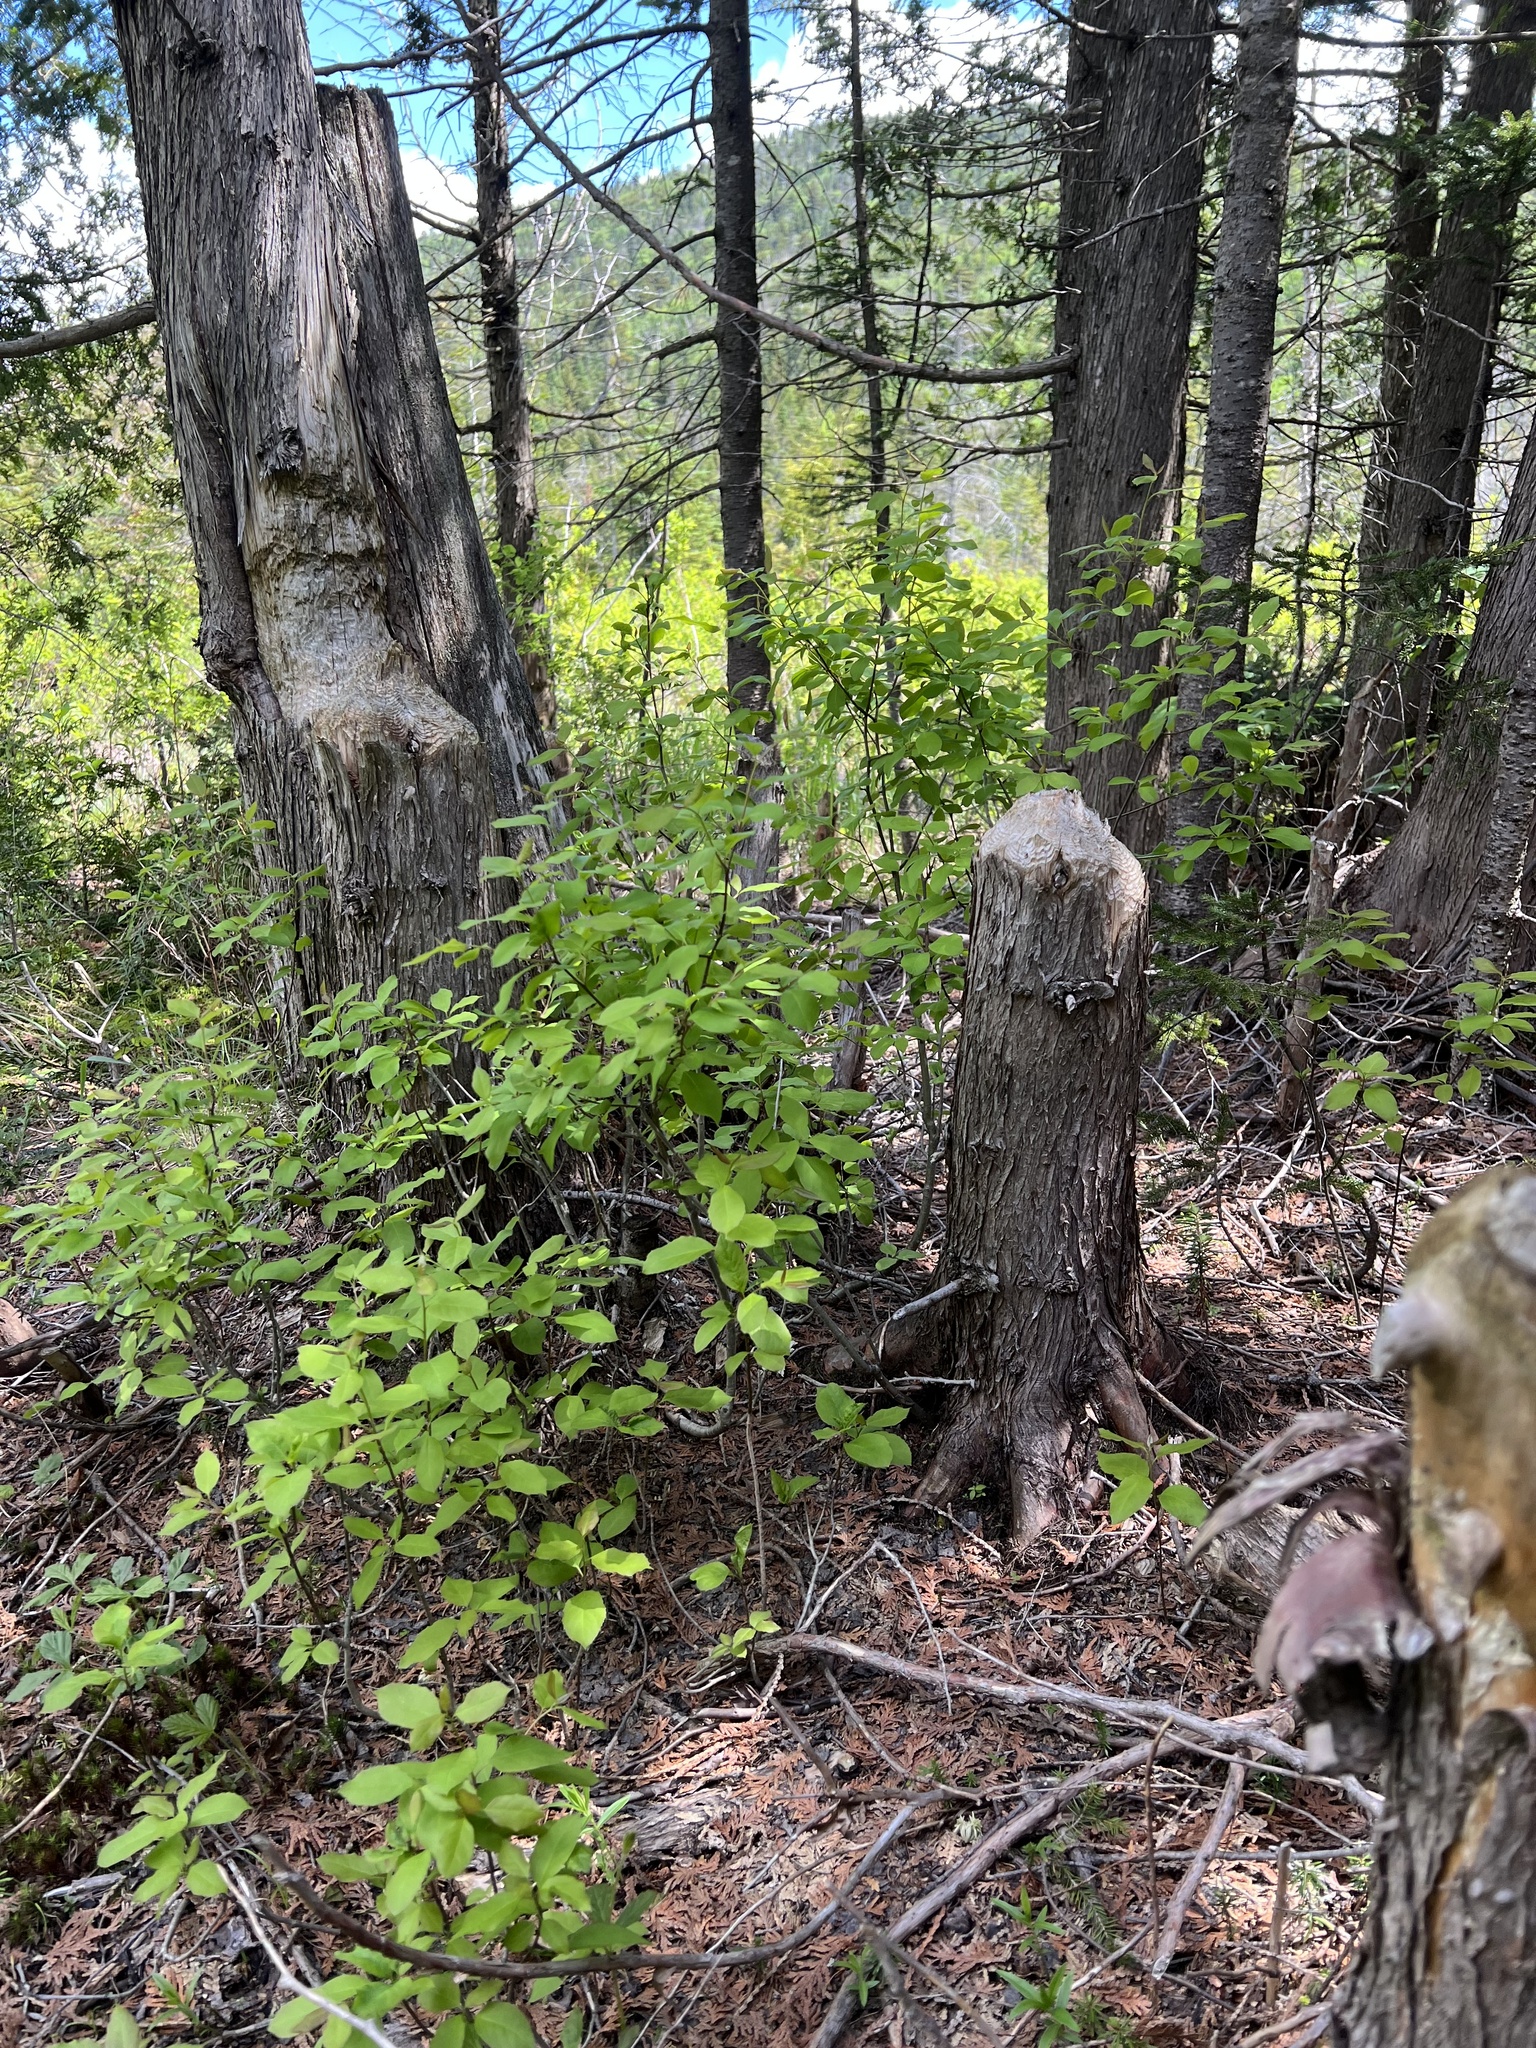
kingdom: Animalia
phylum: Chordata
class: Mammalia
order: Rodentia
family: Castoridae
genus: Castor
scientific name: Castor canadensis
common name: American beaver
